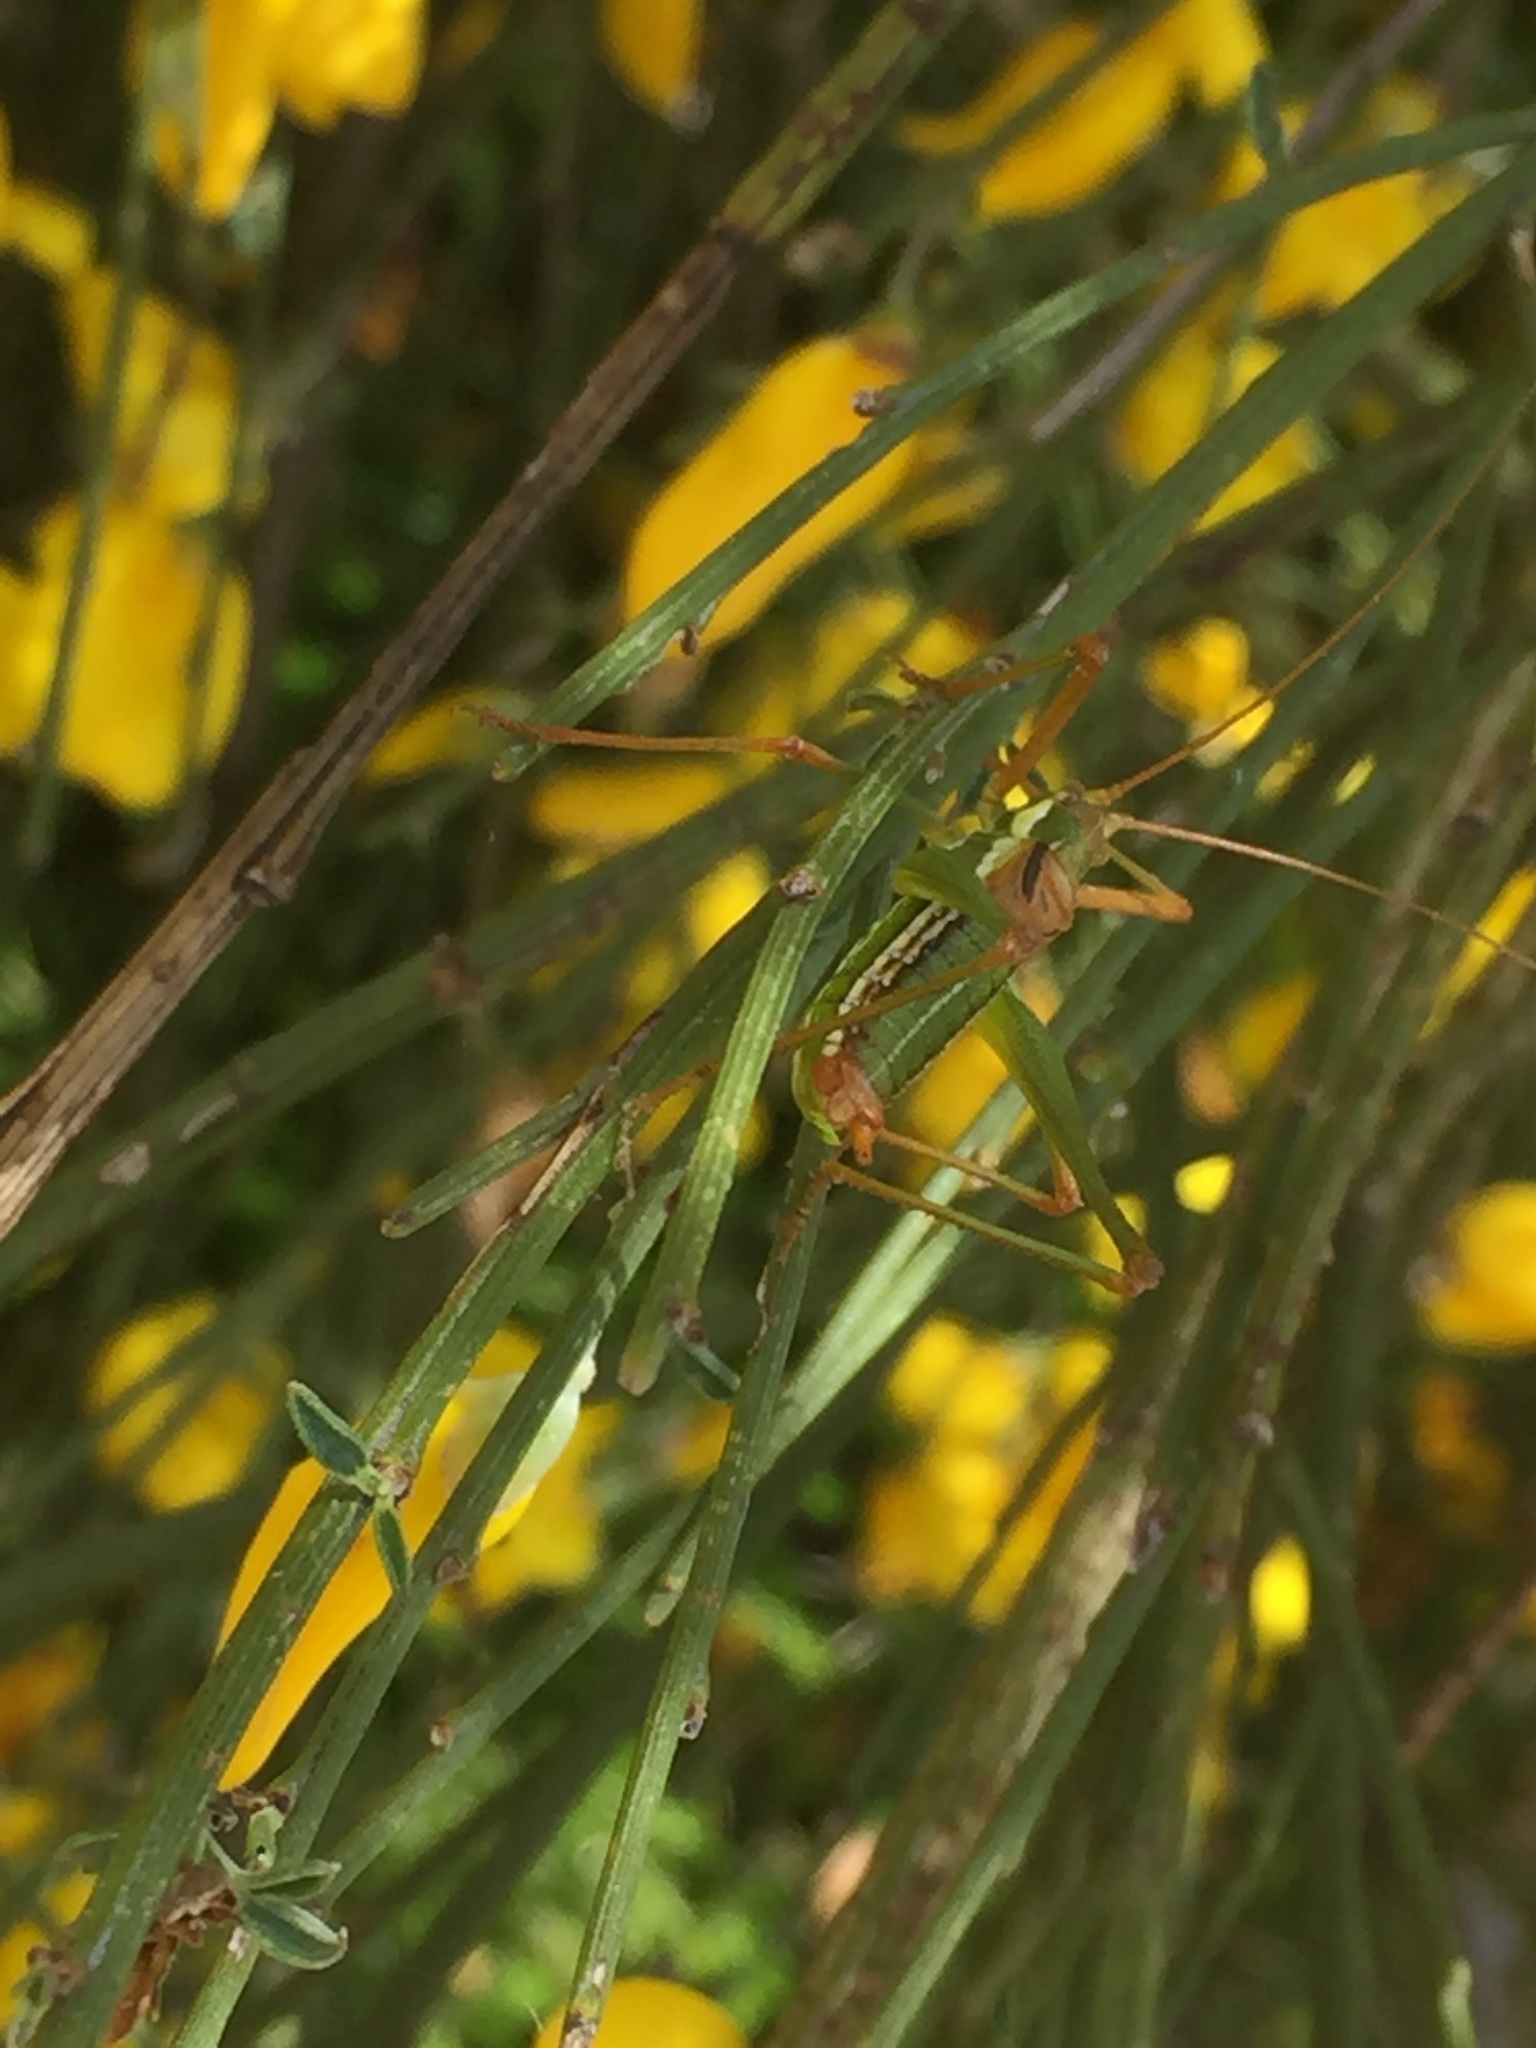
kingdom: Animalia
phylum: Arthropoda
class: Insecta
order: Orthoptera
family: Tettigoniidae
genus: Odontura
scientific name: Odontura macphersoni
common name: Macpherson's striped bush-cricket
